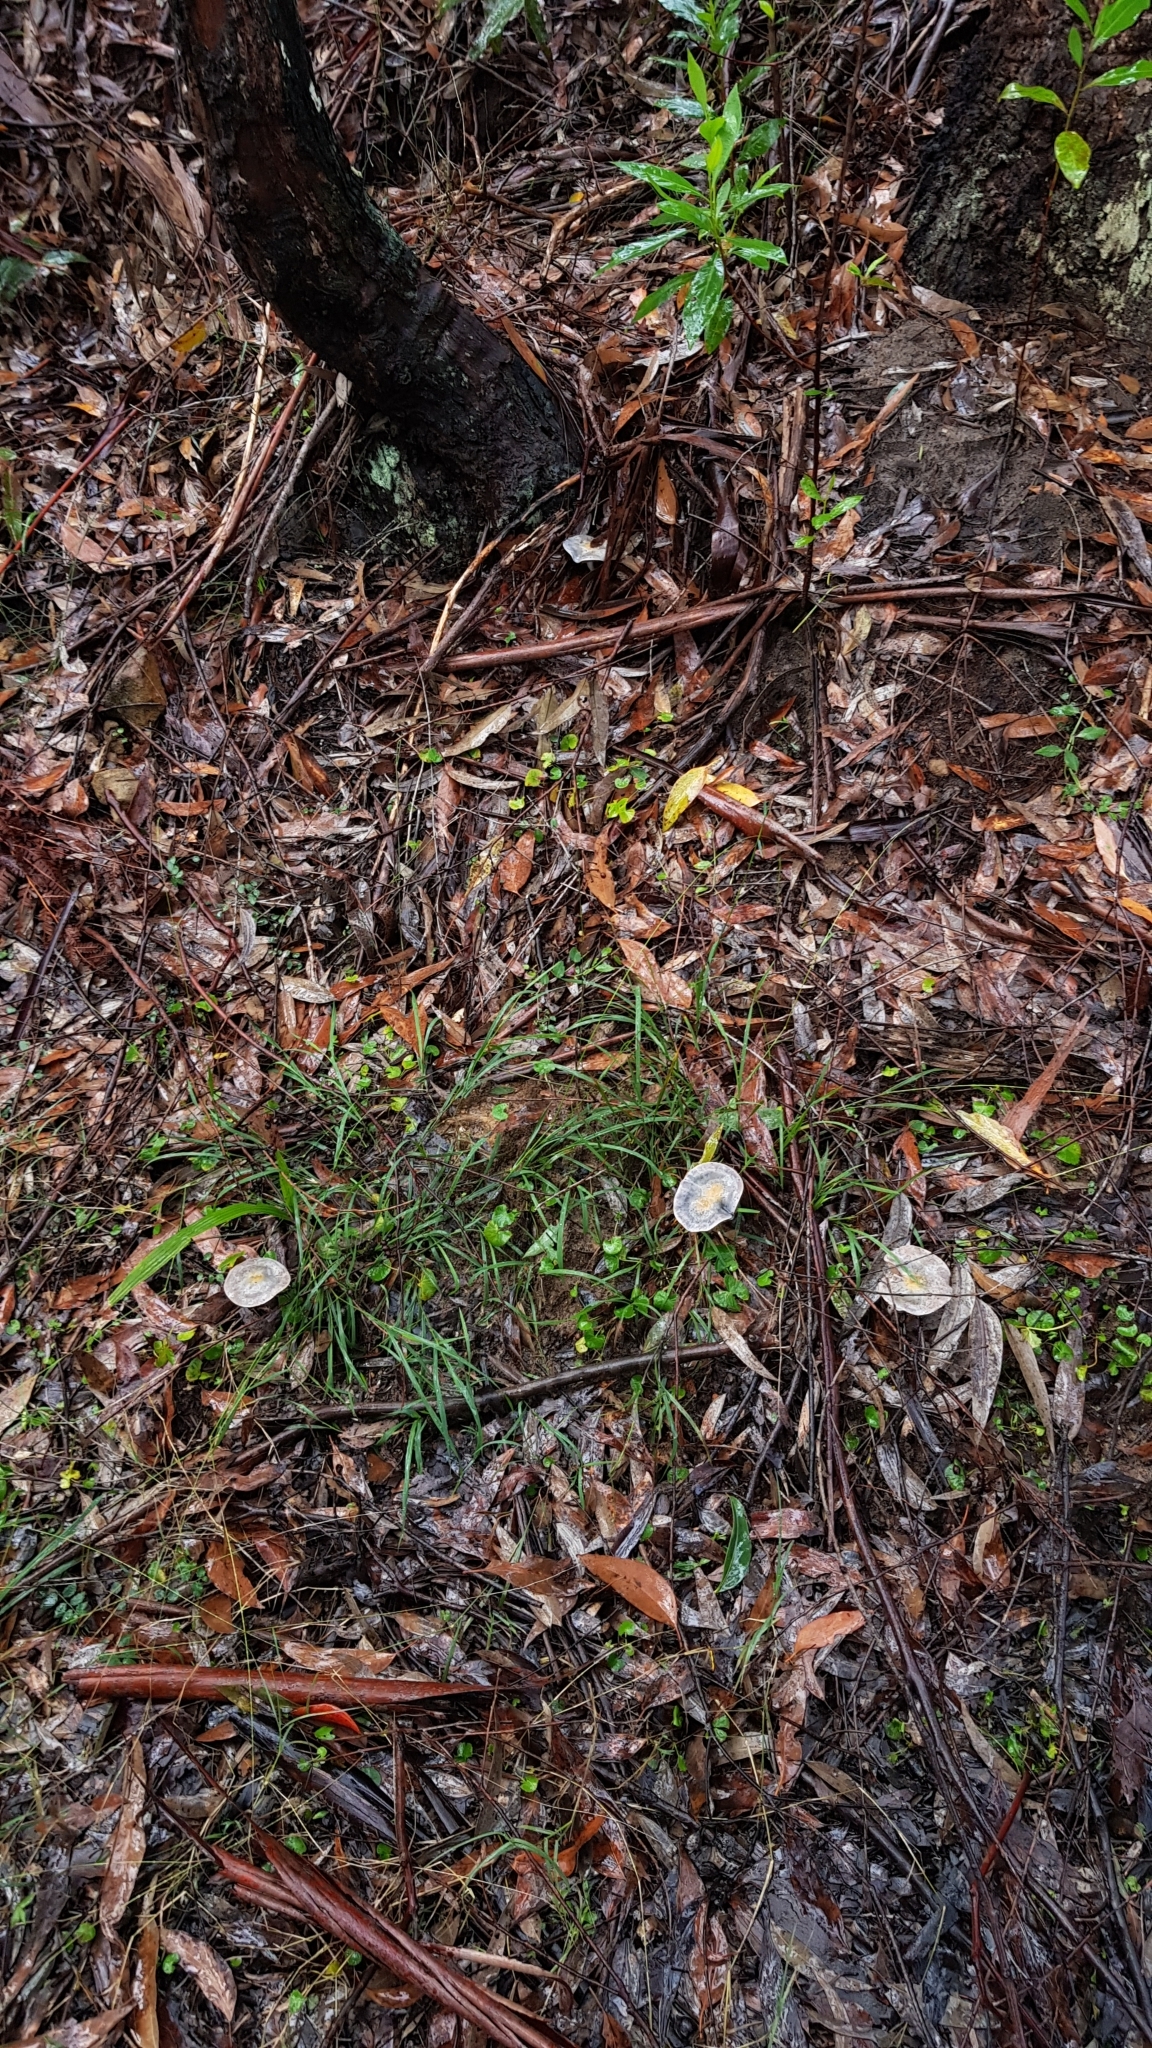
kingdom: Fungi
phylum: Basidiomycota
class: Agaricomycetes
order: Agaricales
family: Cortinariaceae
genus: Cortinarius
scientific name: Cortinarius rotundisporus
